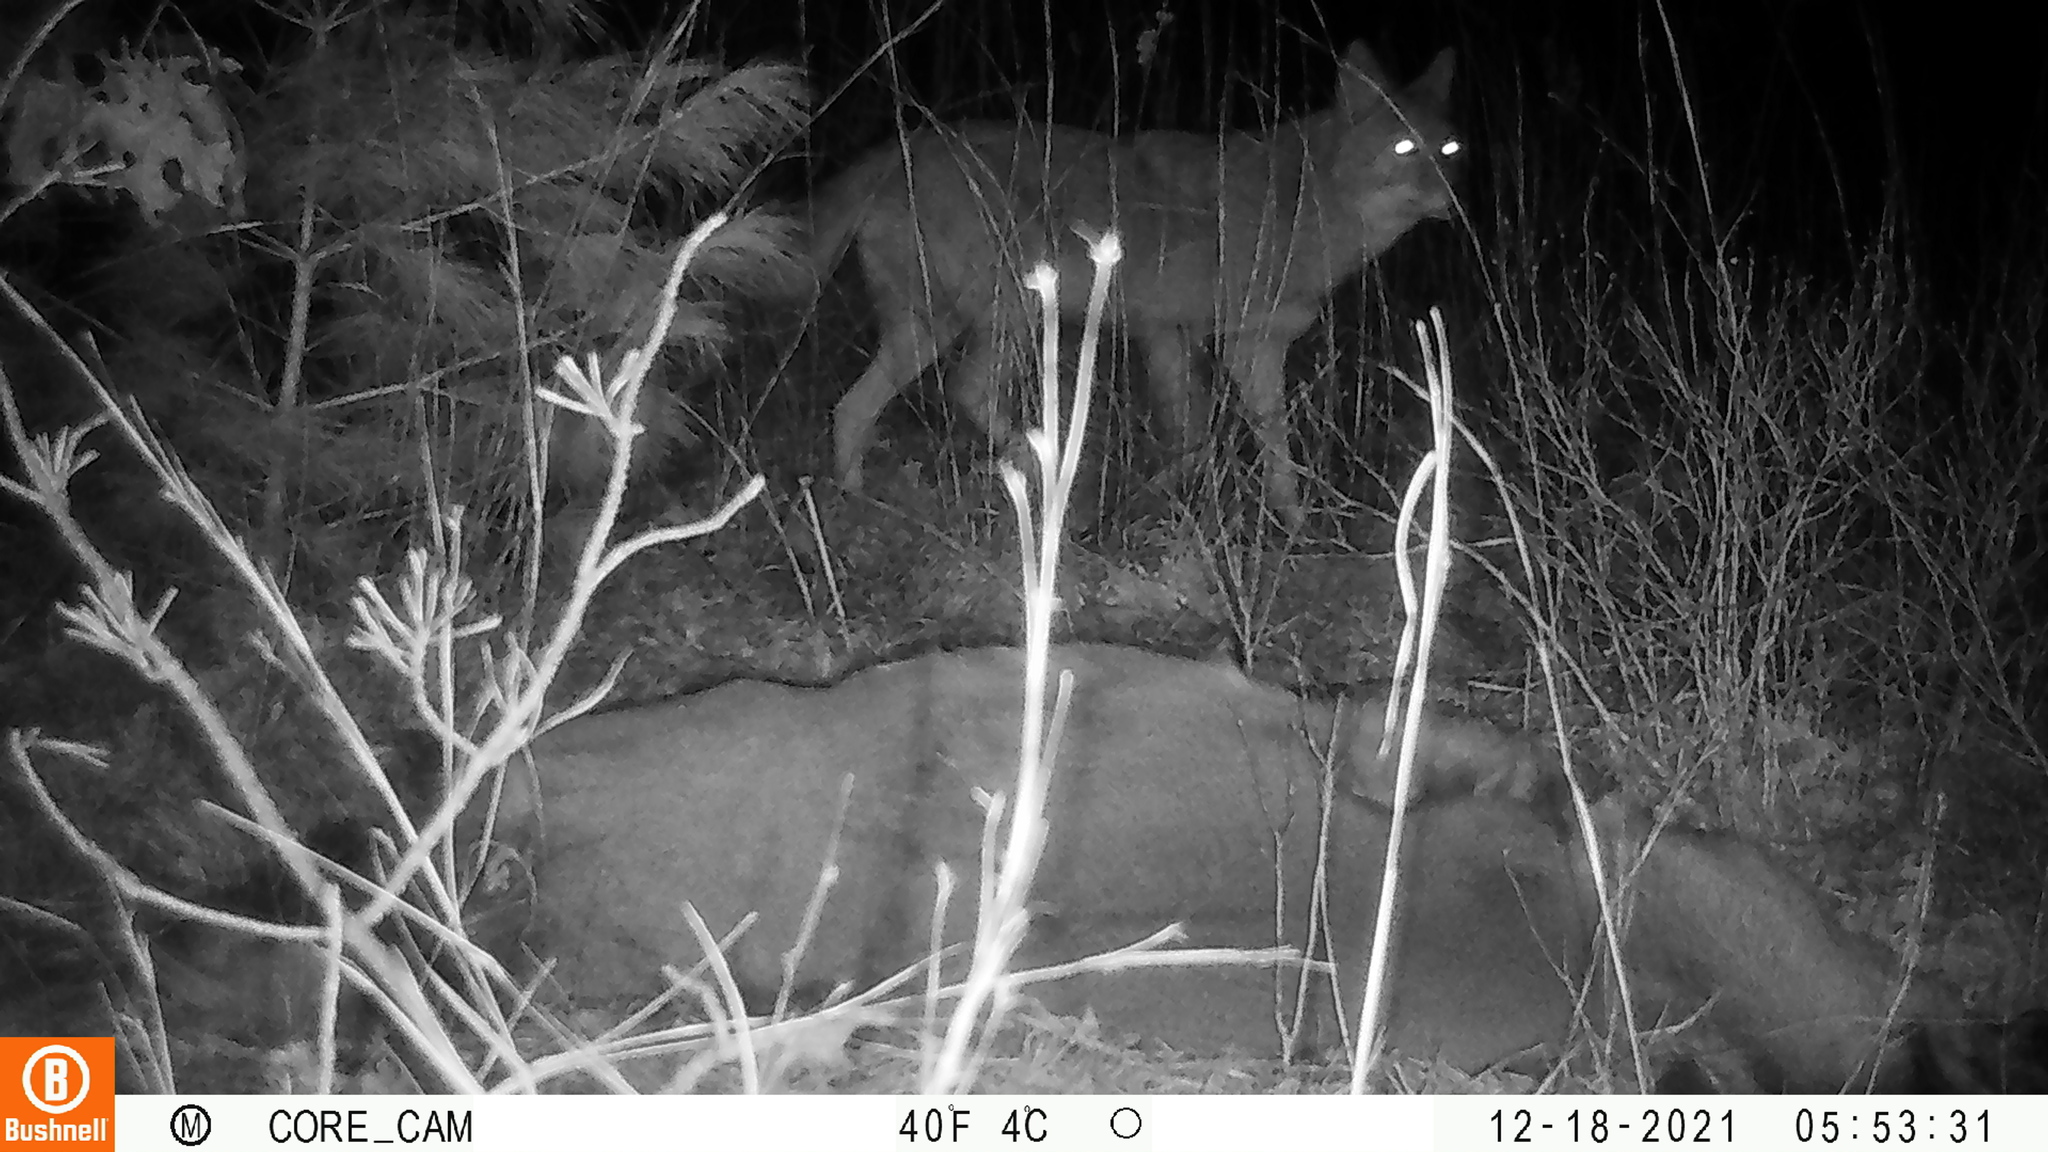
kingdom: Animalia
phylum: Chordata
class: Mammalia
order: Carnivora
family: Canidae
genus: Canis
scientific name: Canis latrans
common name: Coyote
